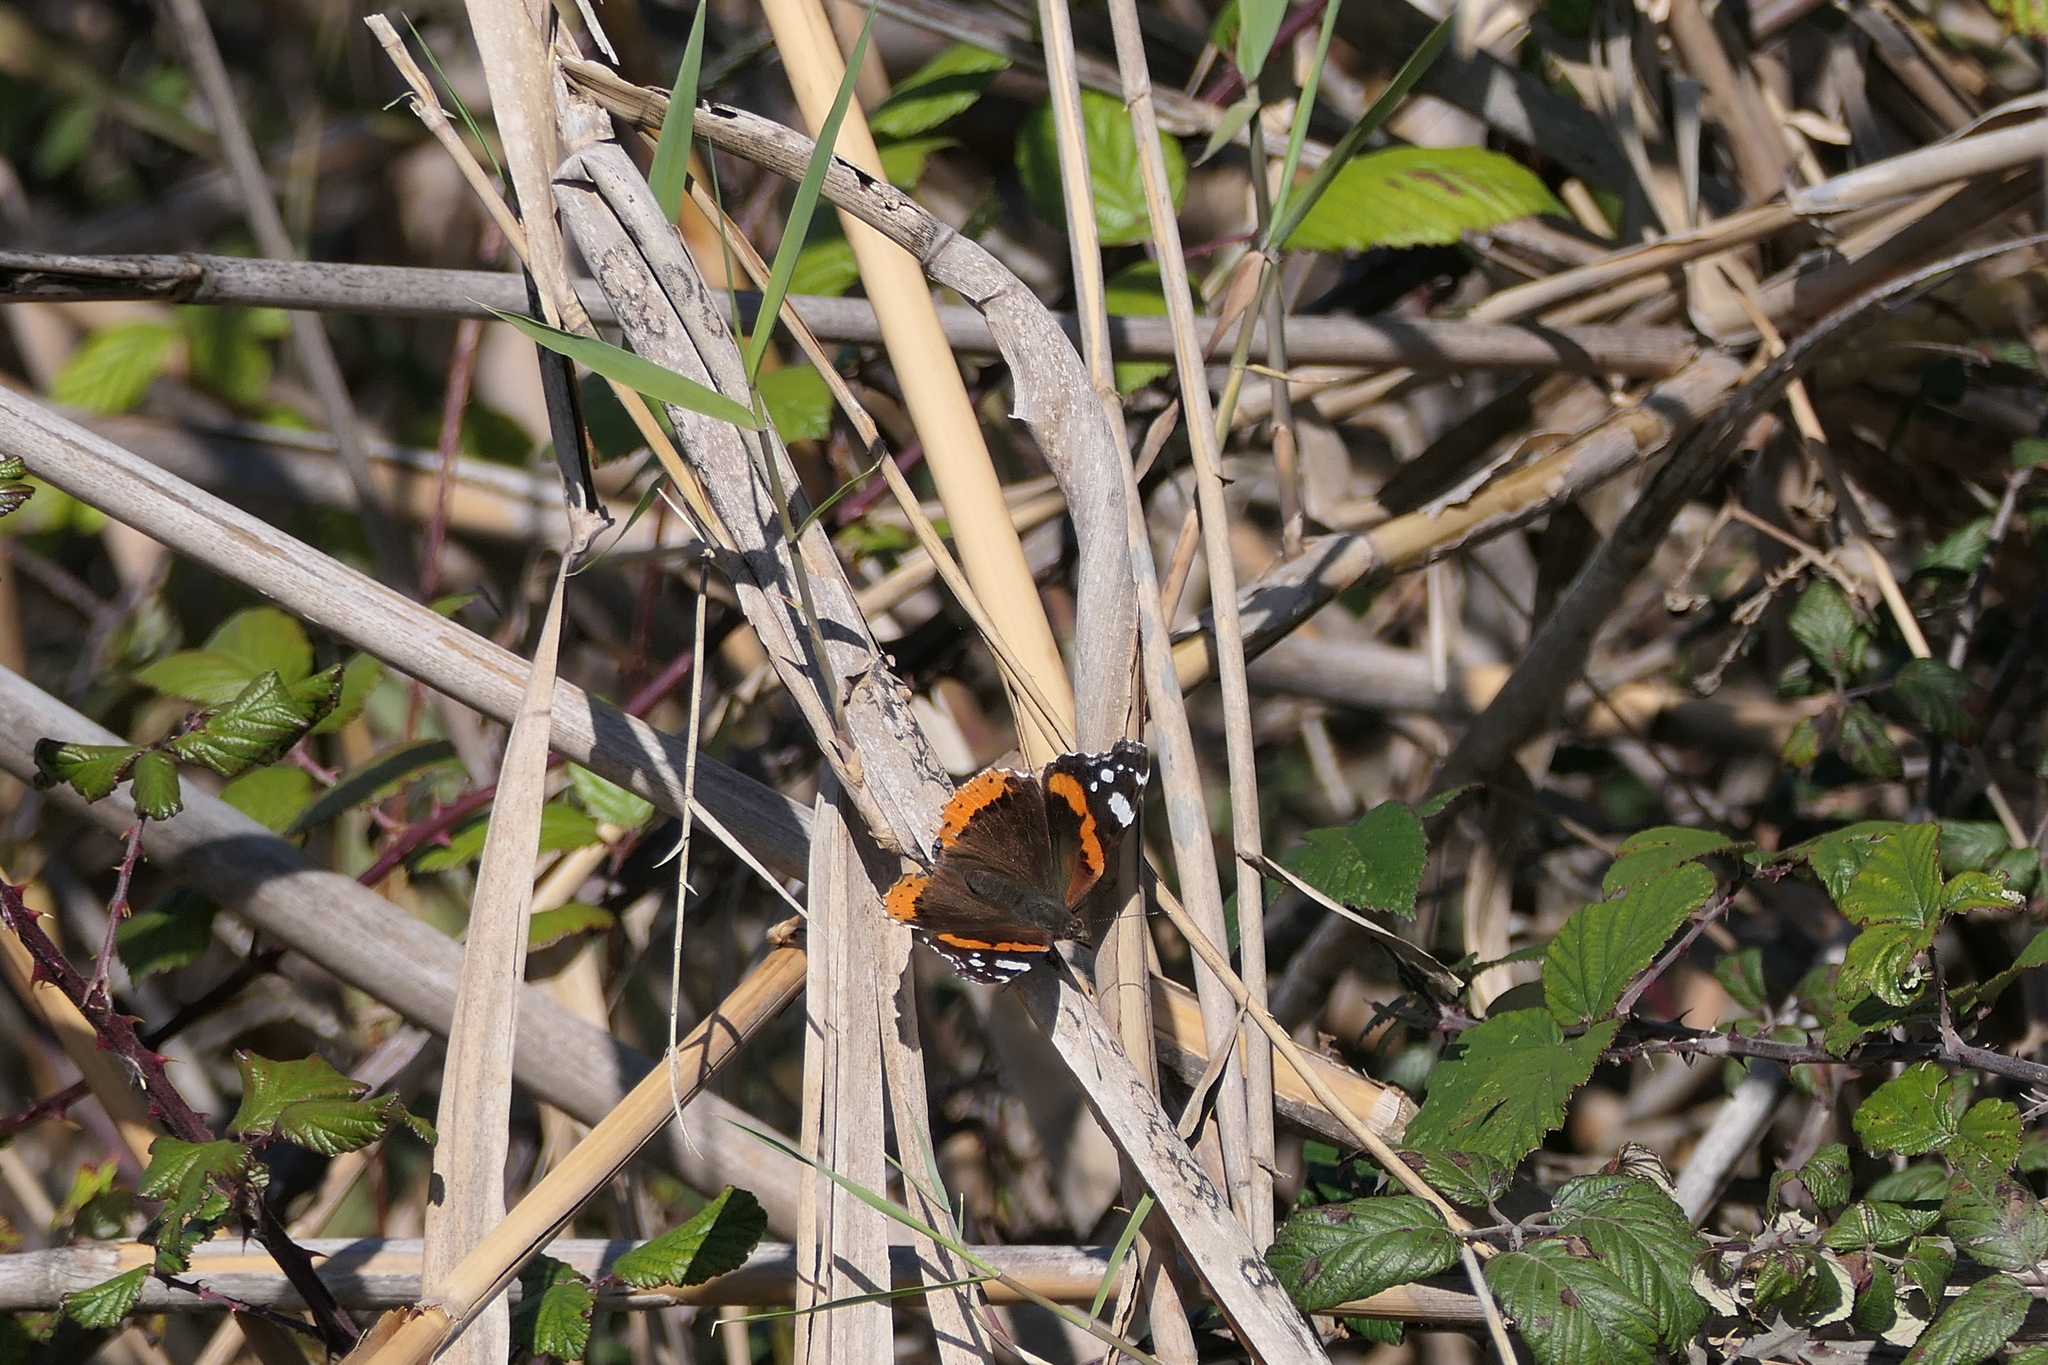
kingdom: Animalia
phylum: Arthropoda
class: Insecta
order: Lepidoptera
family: Nymphalidae
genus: Vanessa
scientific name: Vanessa atalanta
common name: Red admiral
